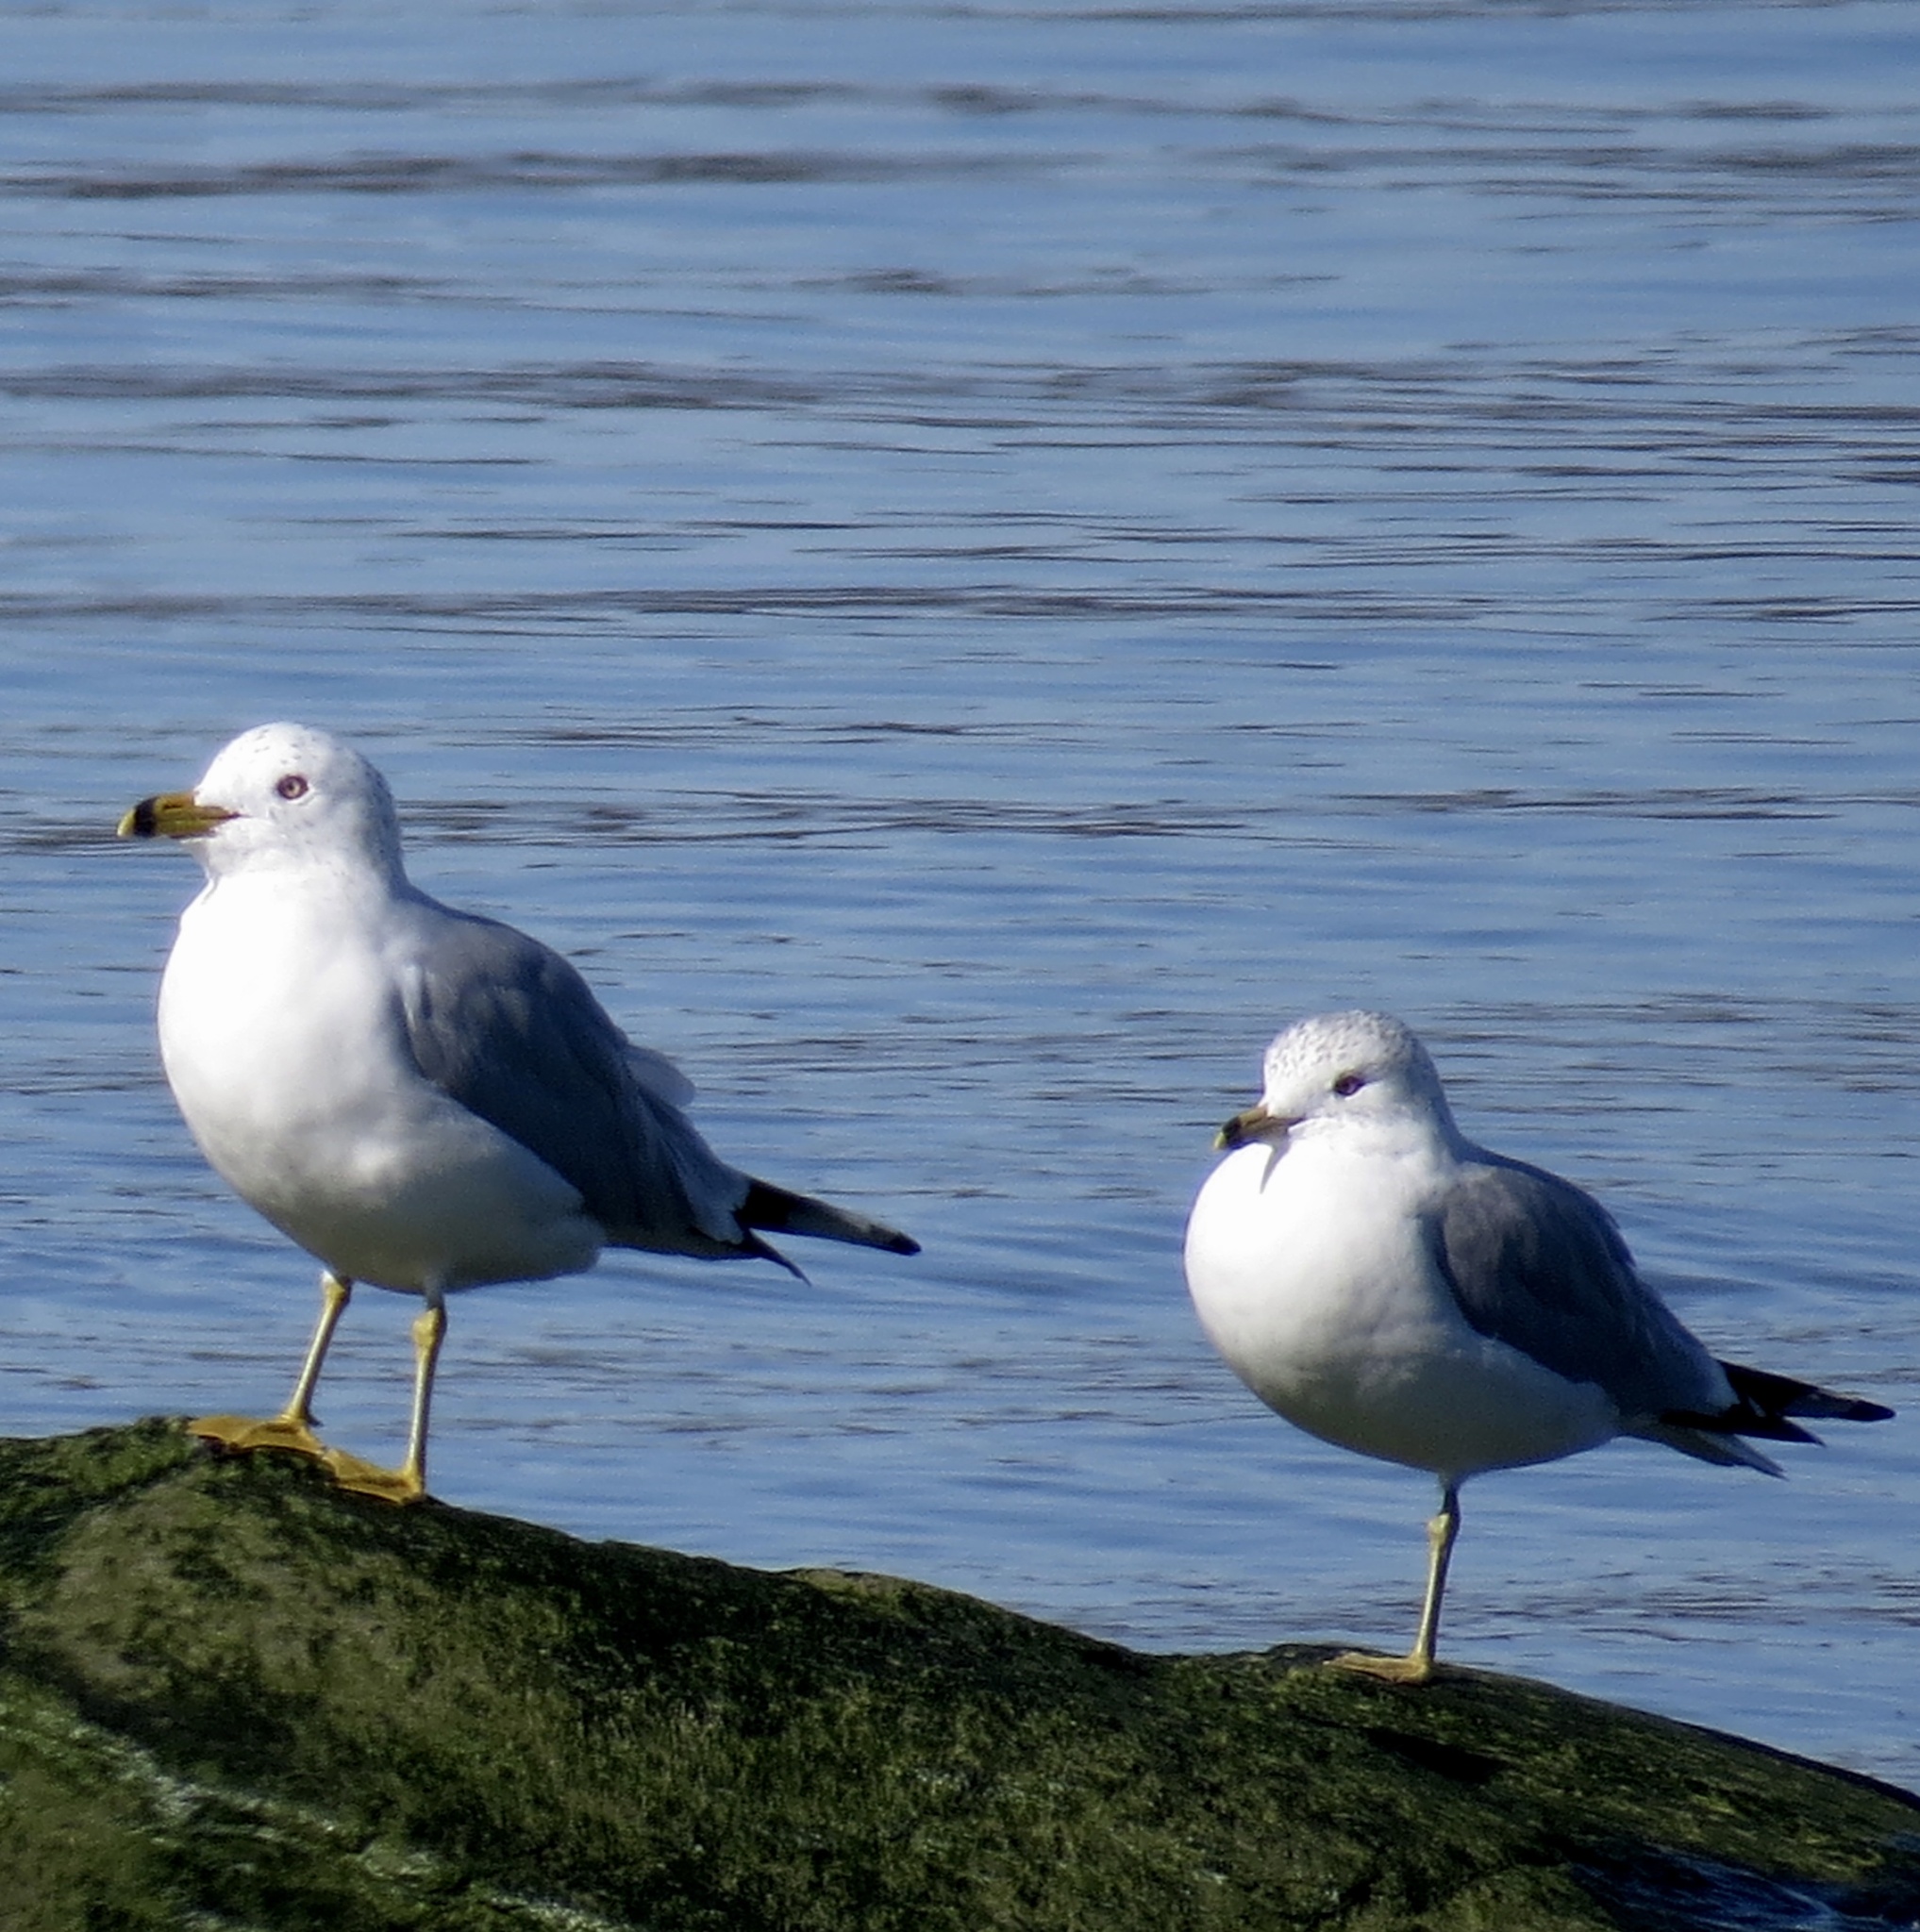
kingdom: Animalia
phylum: Chordata
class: Aves
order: Charadriiformes
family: Laridae
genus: Larus
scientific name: Larus delawarensis
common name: Ring-billed gull
